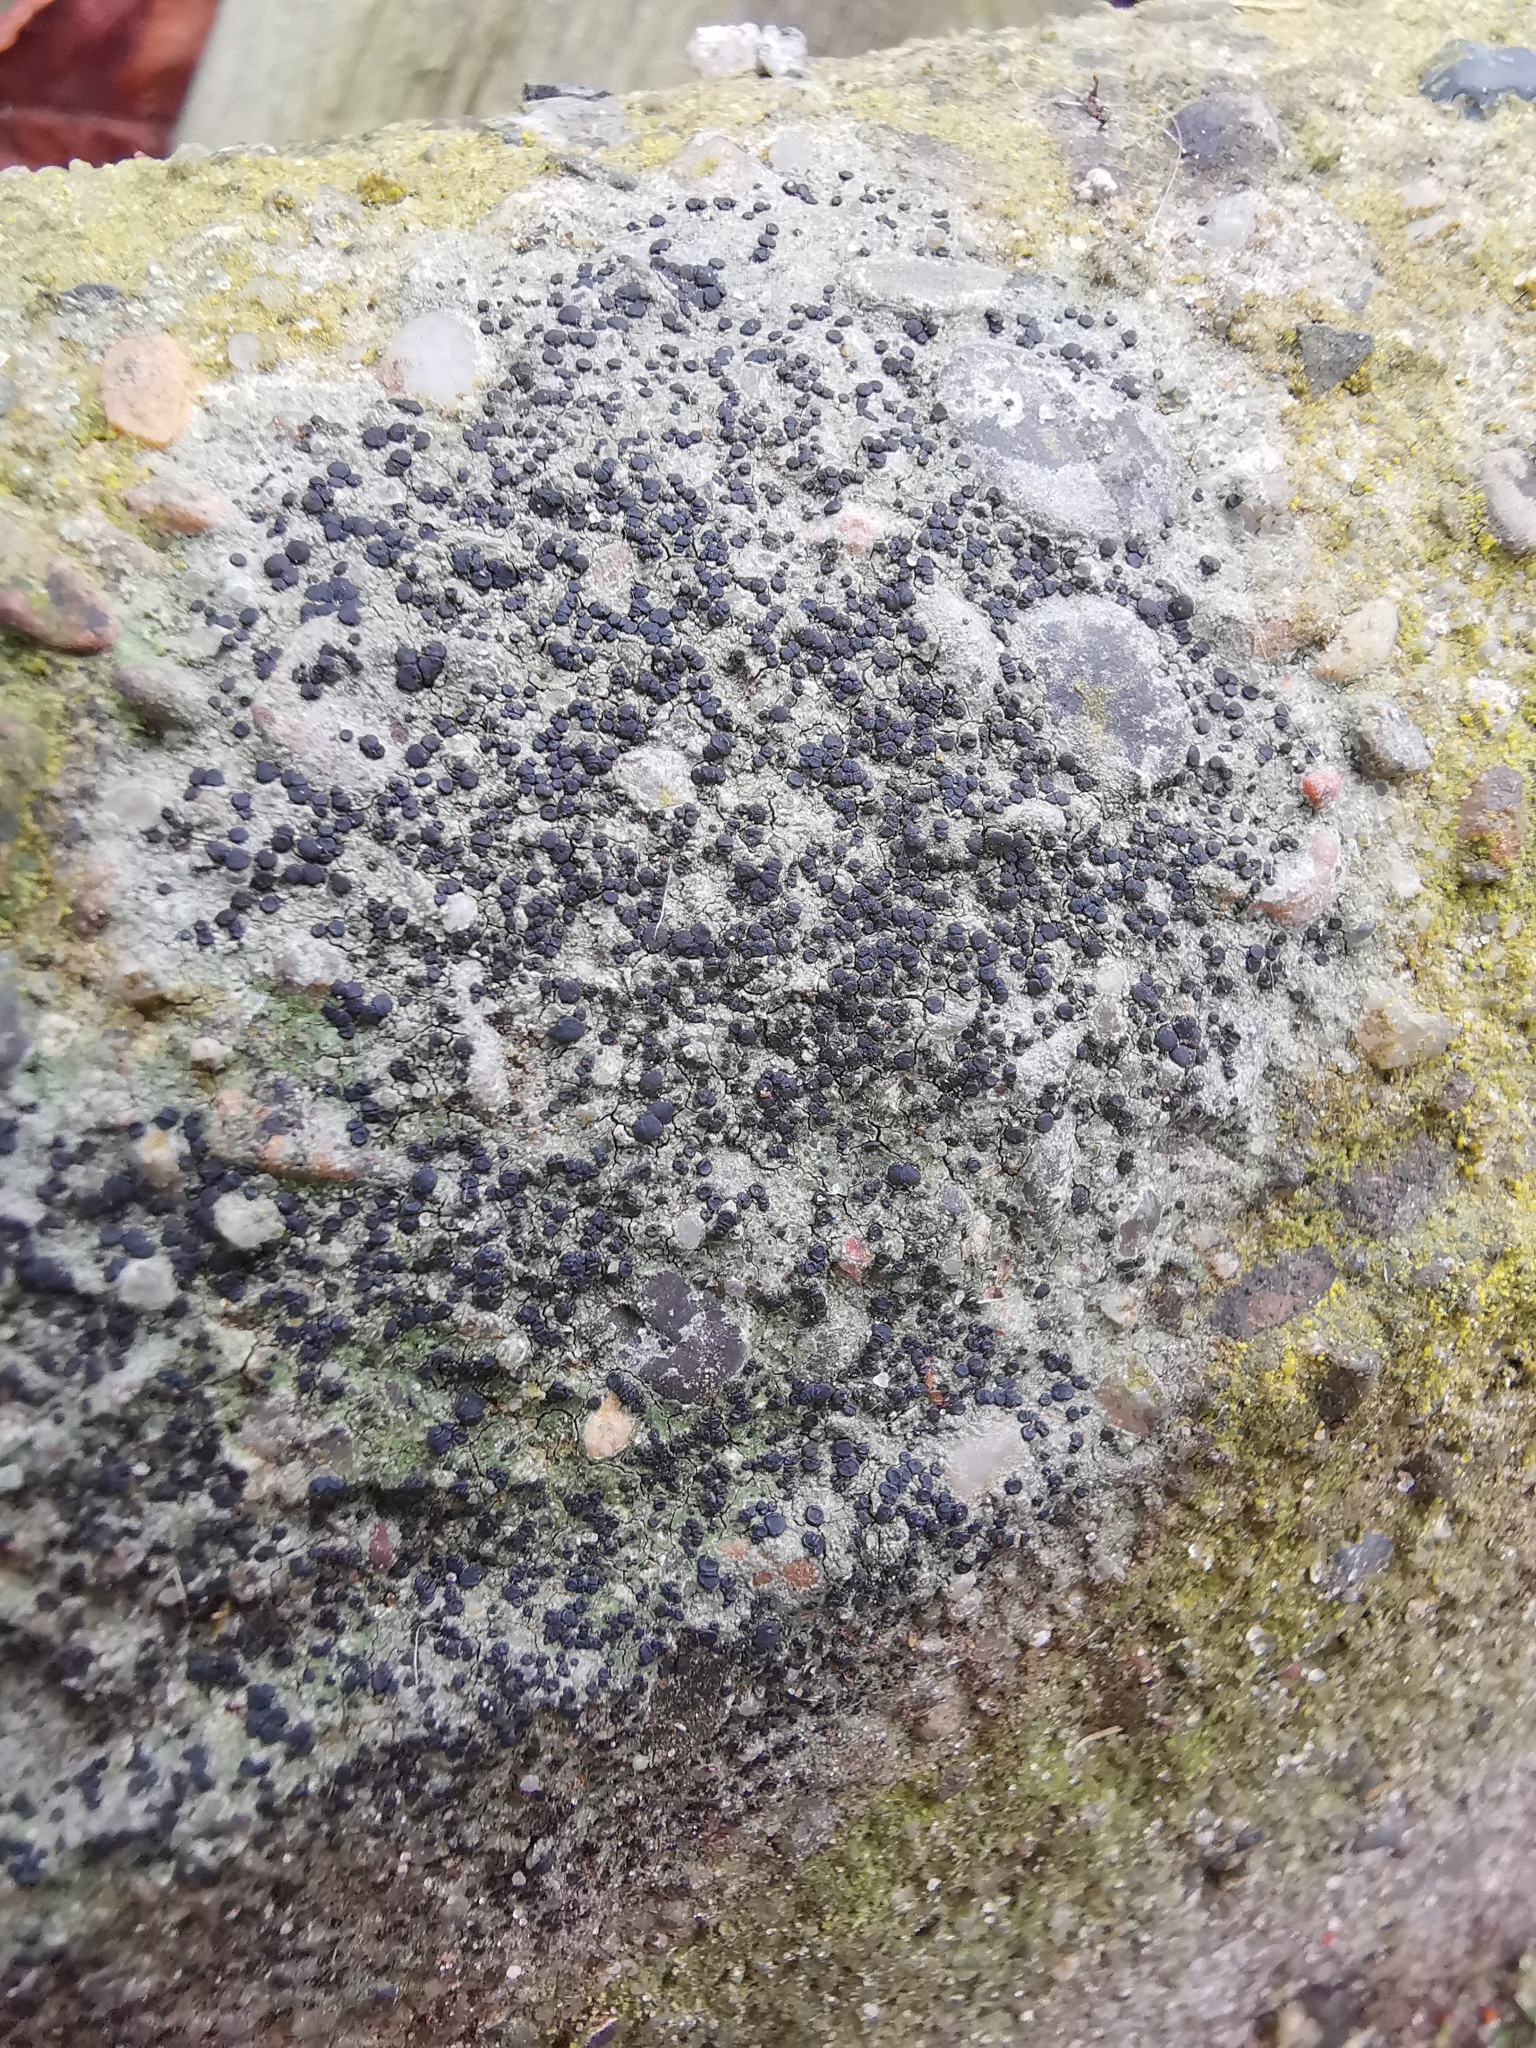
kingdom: Fungi
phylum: Ascomycota
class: Lecanoromycetes
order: Lecanorales
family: Lecanoraceae
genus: Lecidella
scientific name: Lecidella stigmatea
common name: Limestone disc lichen
